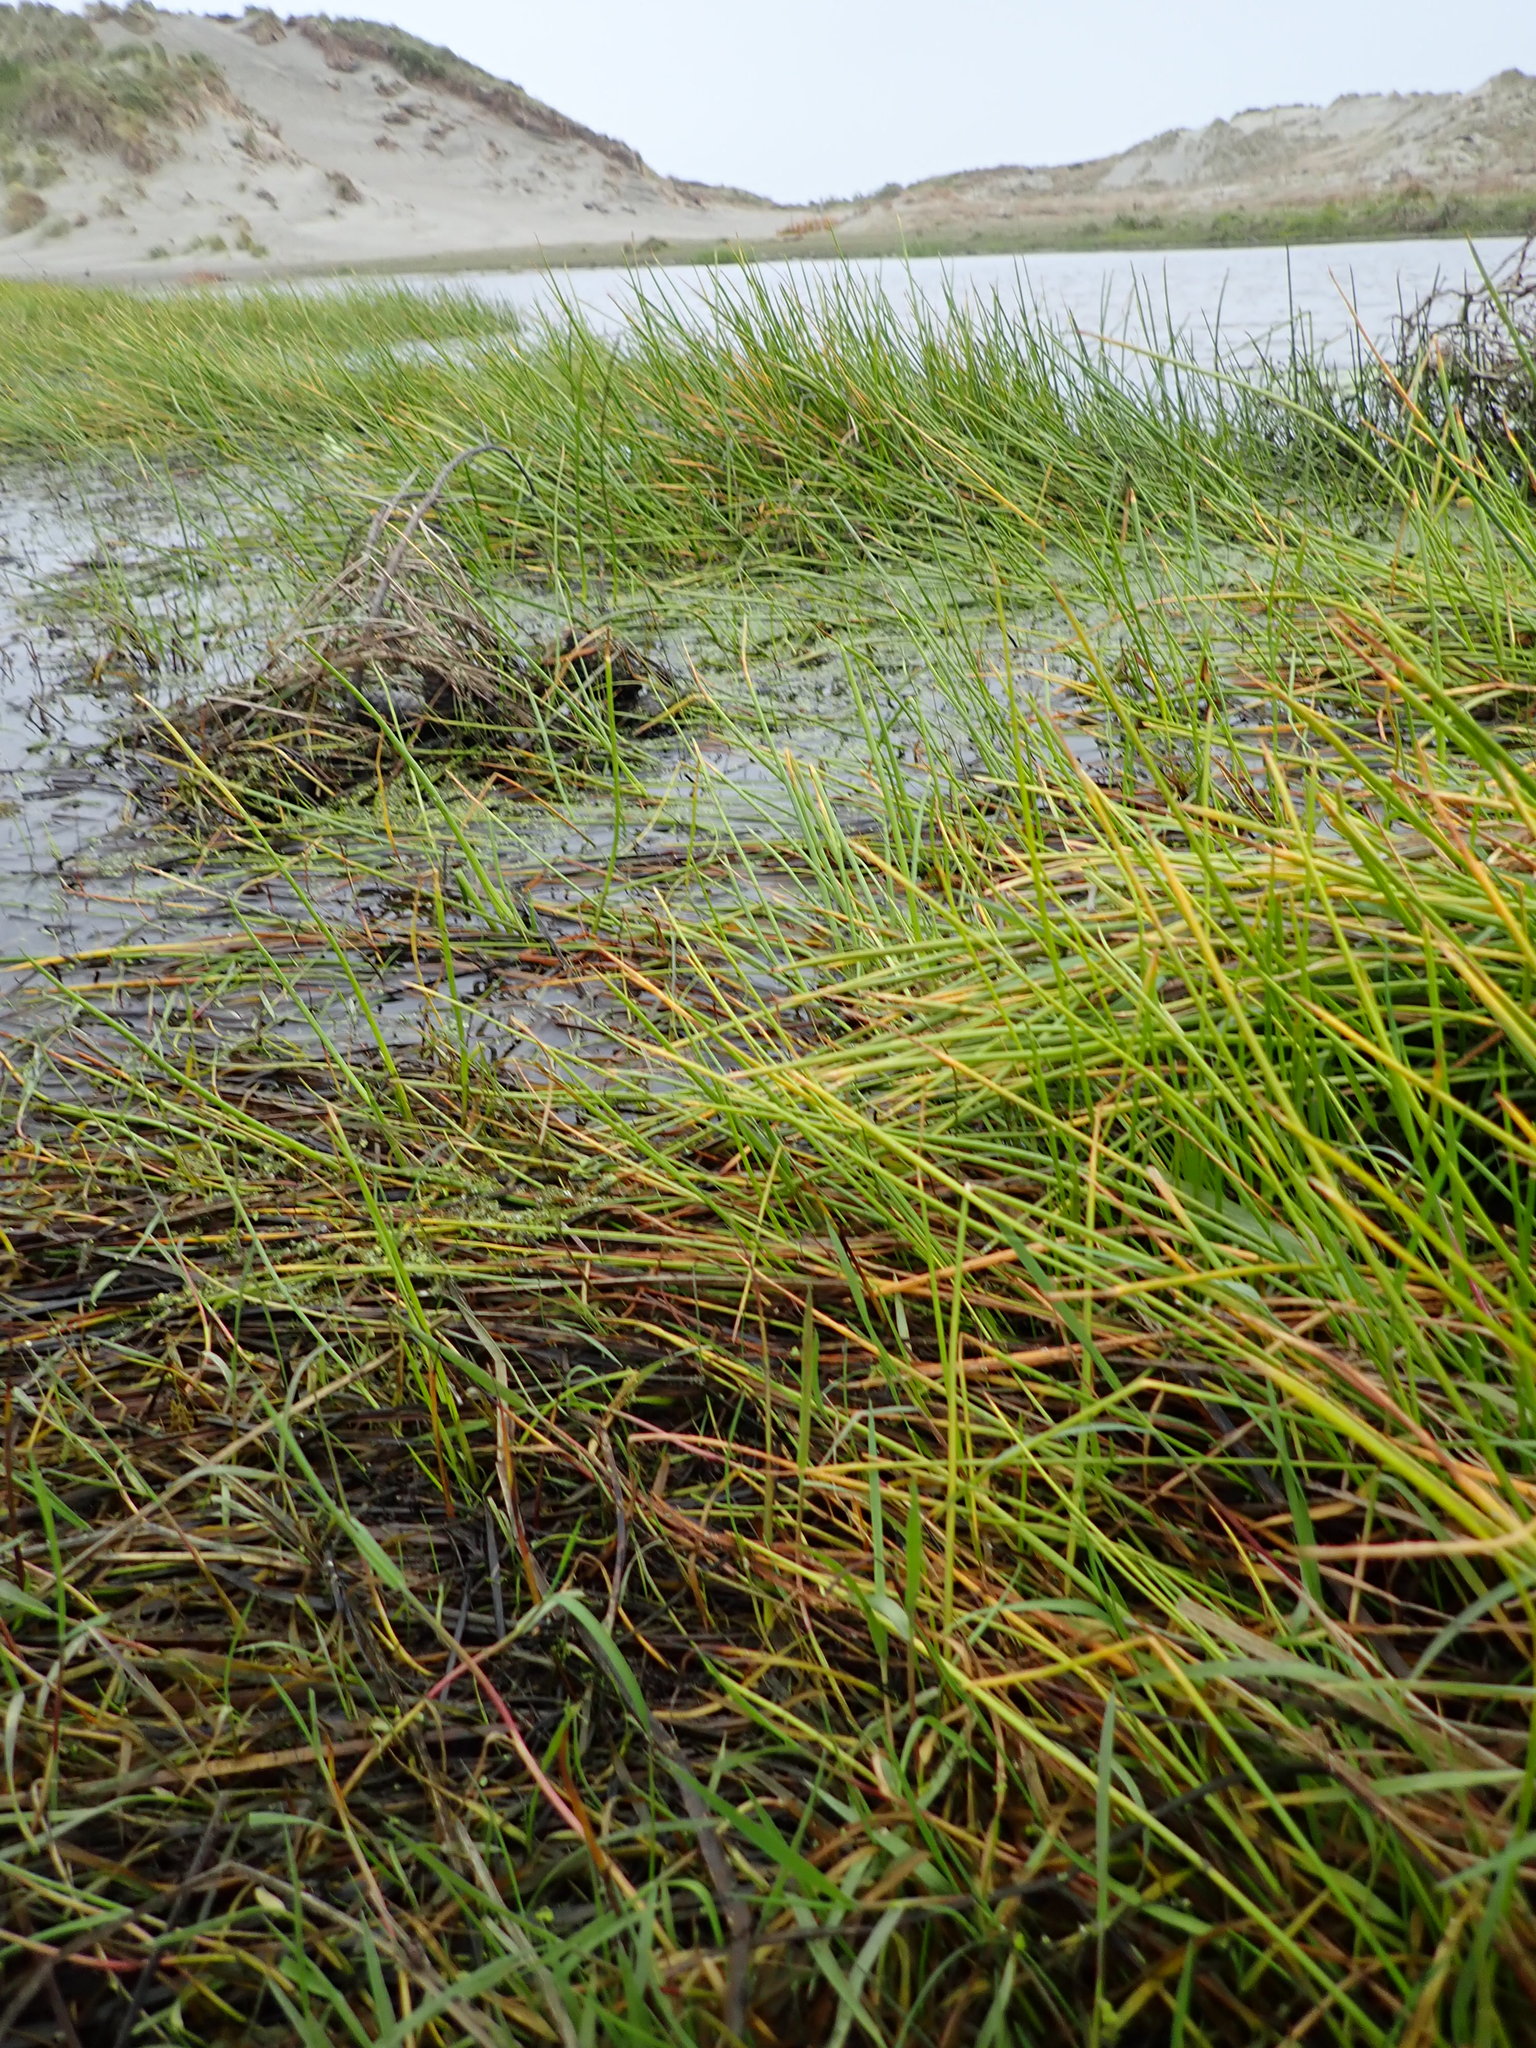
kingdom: Plantae
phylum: Tracheophyta
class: Liliopsida
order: Poales
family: Cyperaceae
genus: Isolepis
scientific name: Isolepis prolifera
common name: Proliferating bulrush
